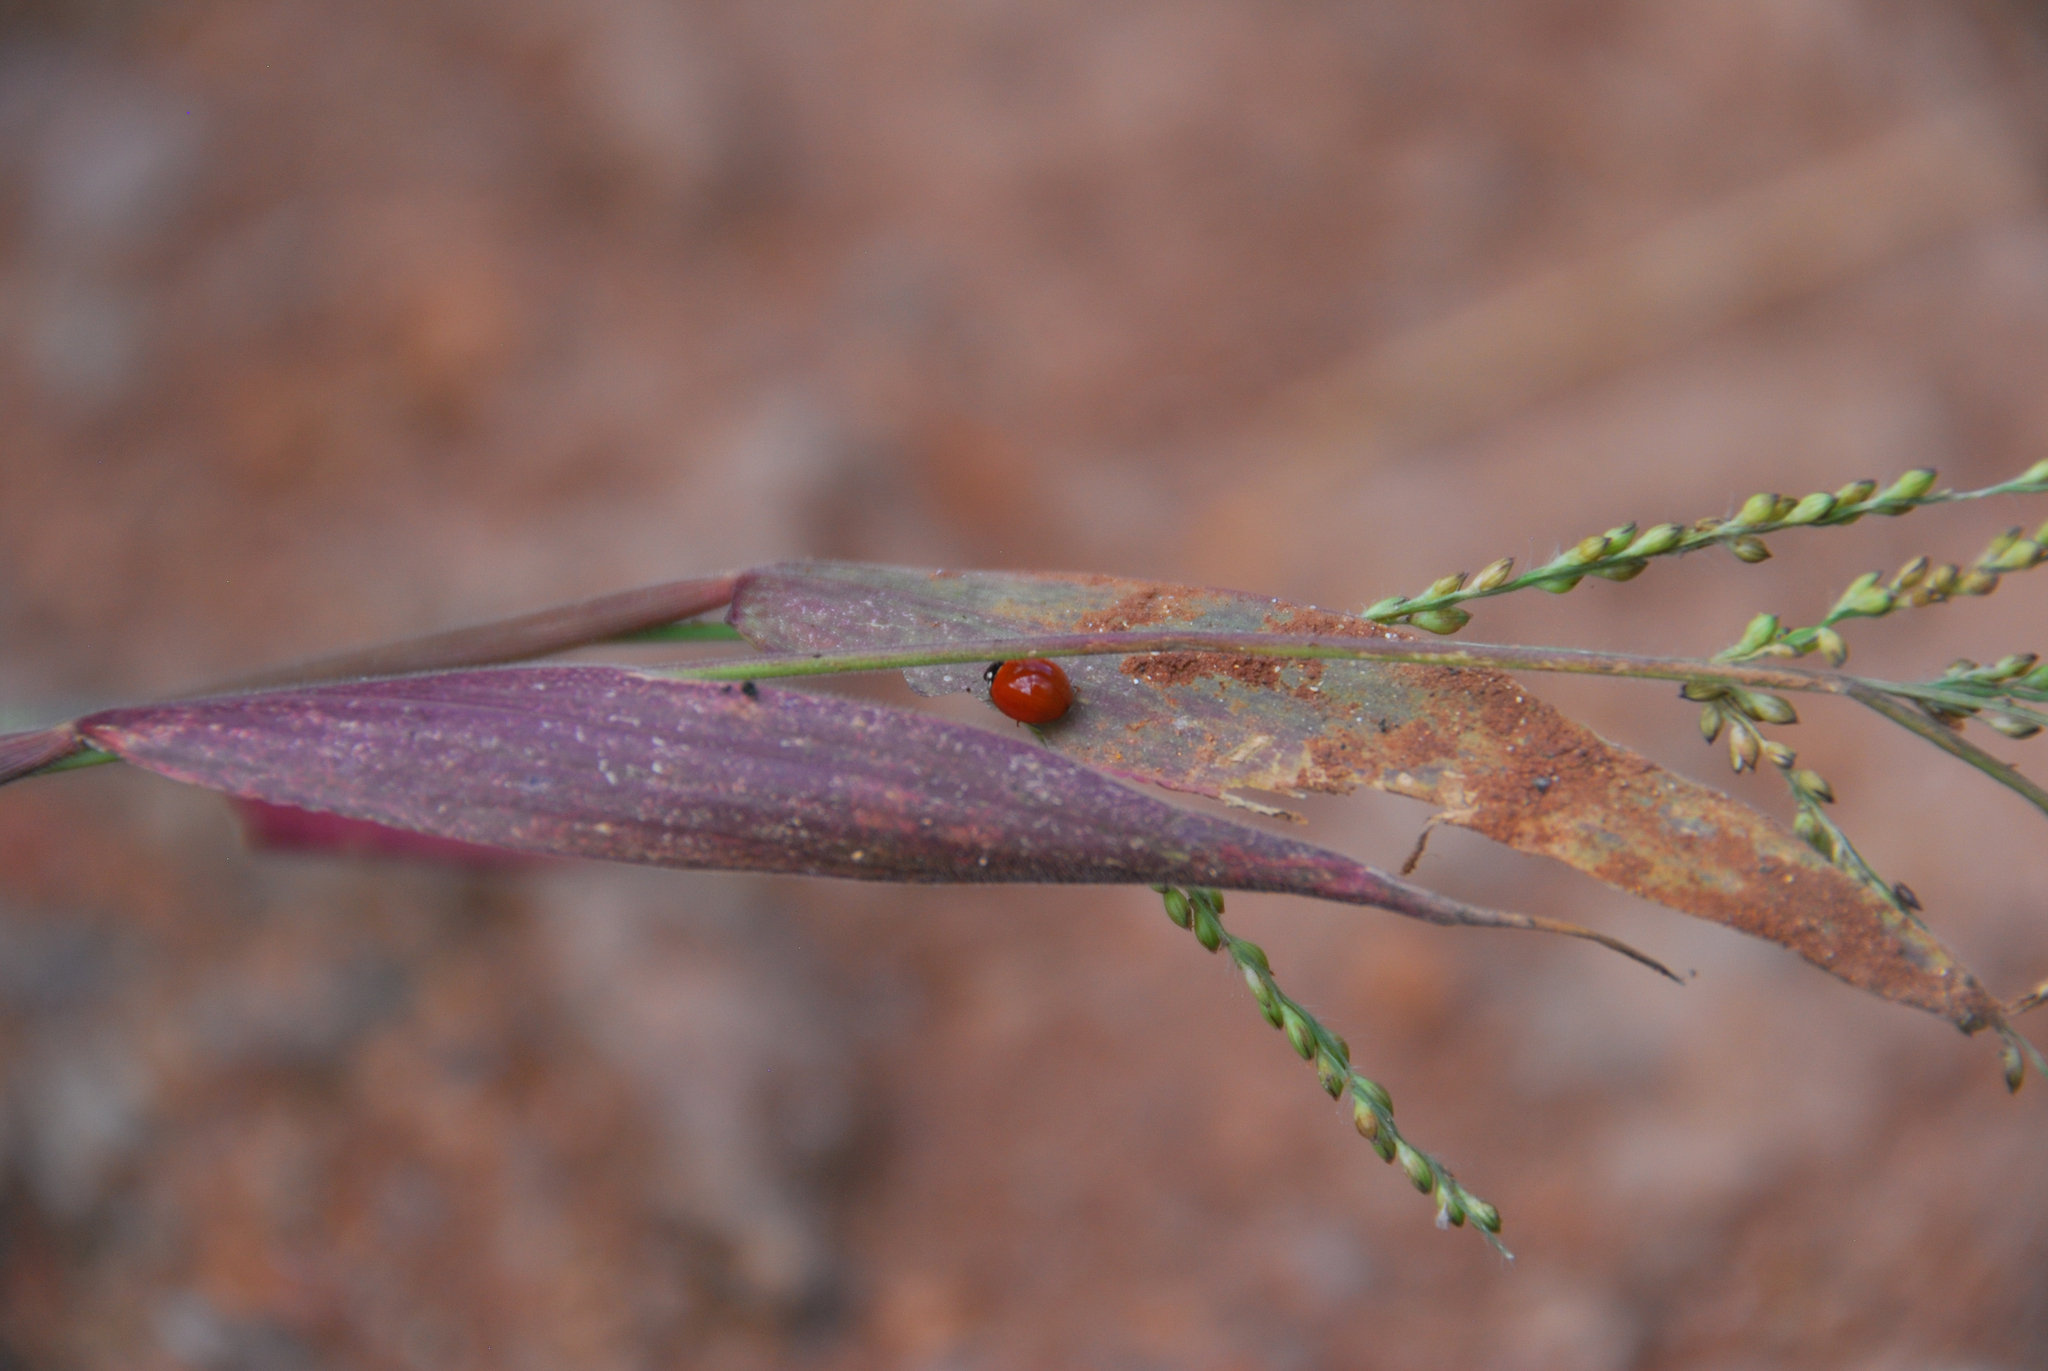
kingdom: Animalia
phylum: Arthropoda
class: Insecta
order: Coleoptera
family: Coccinellidae
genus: Cycloneda
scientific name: Cycloneda sanguinea
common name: Ladybird beetle
